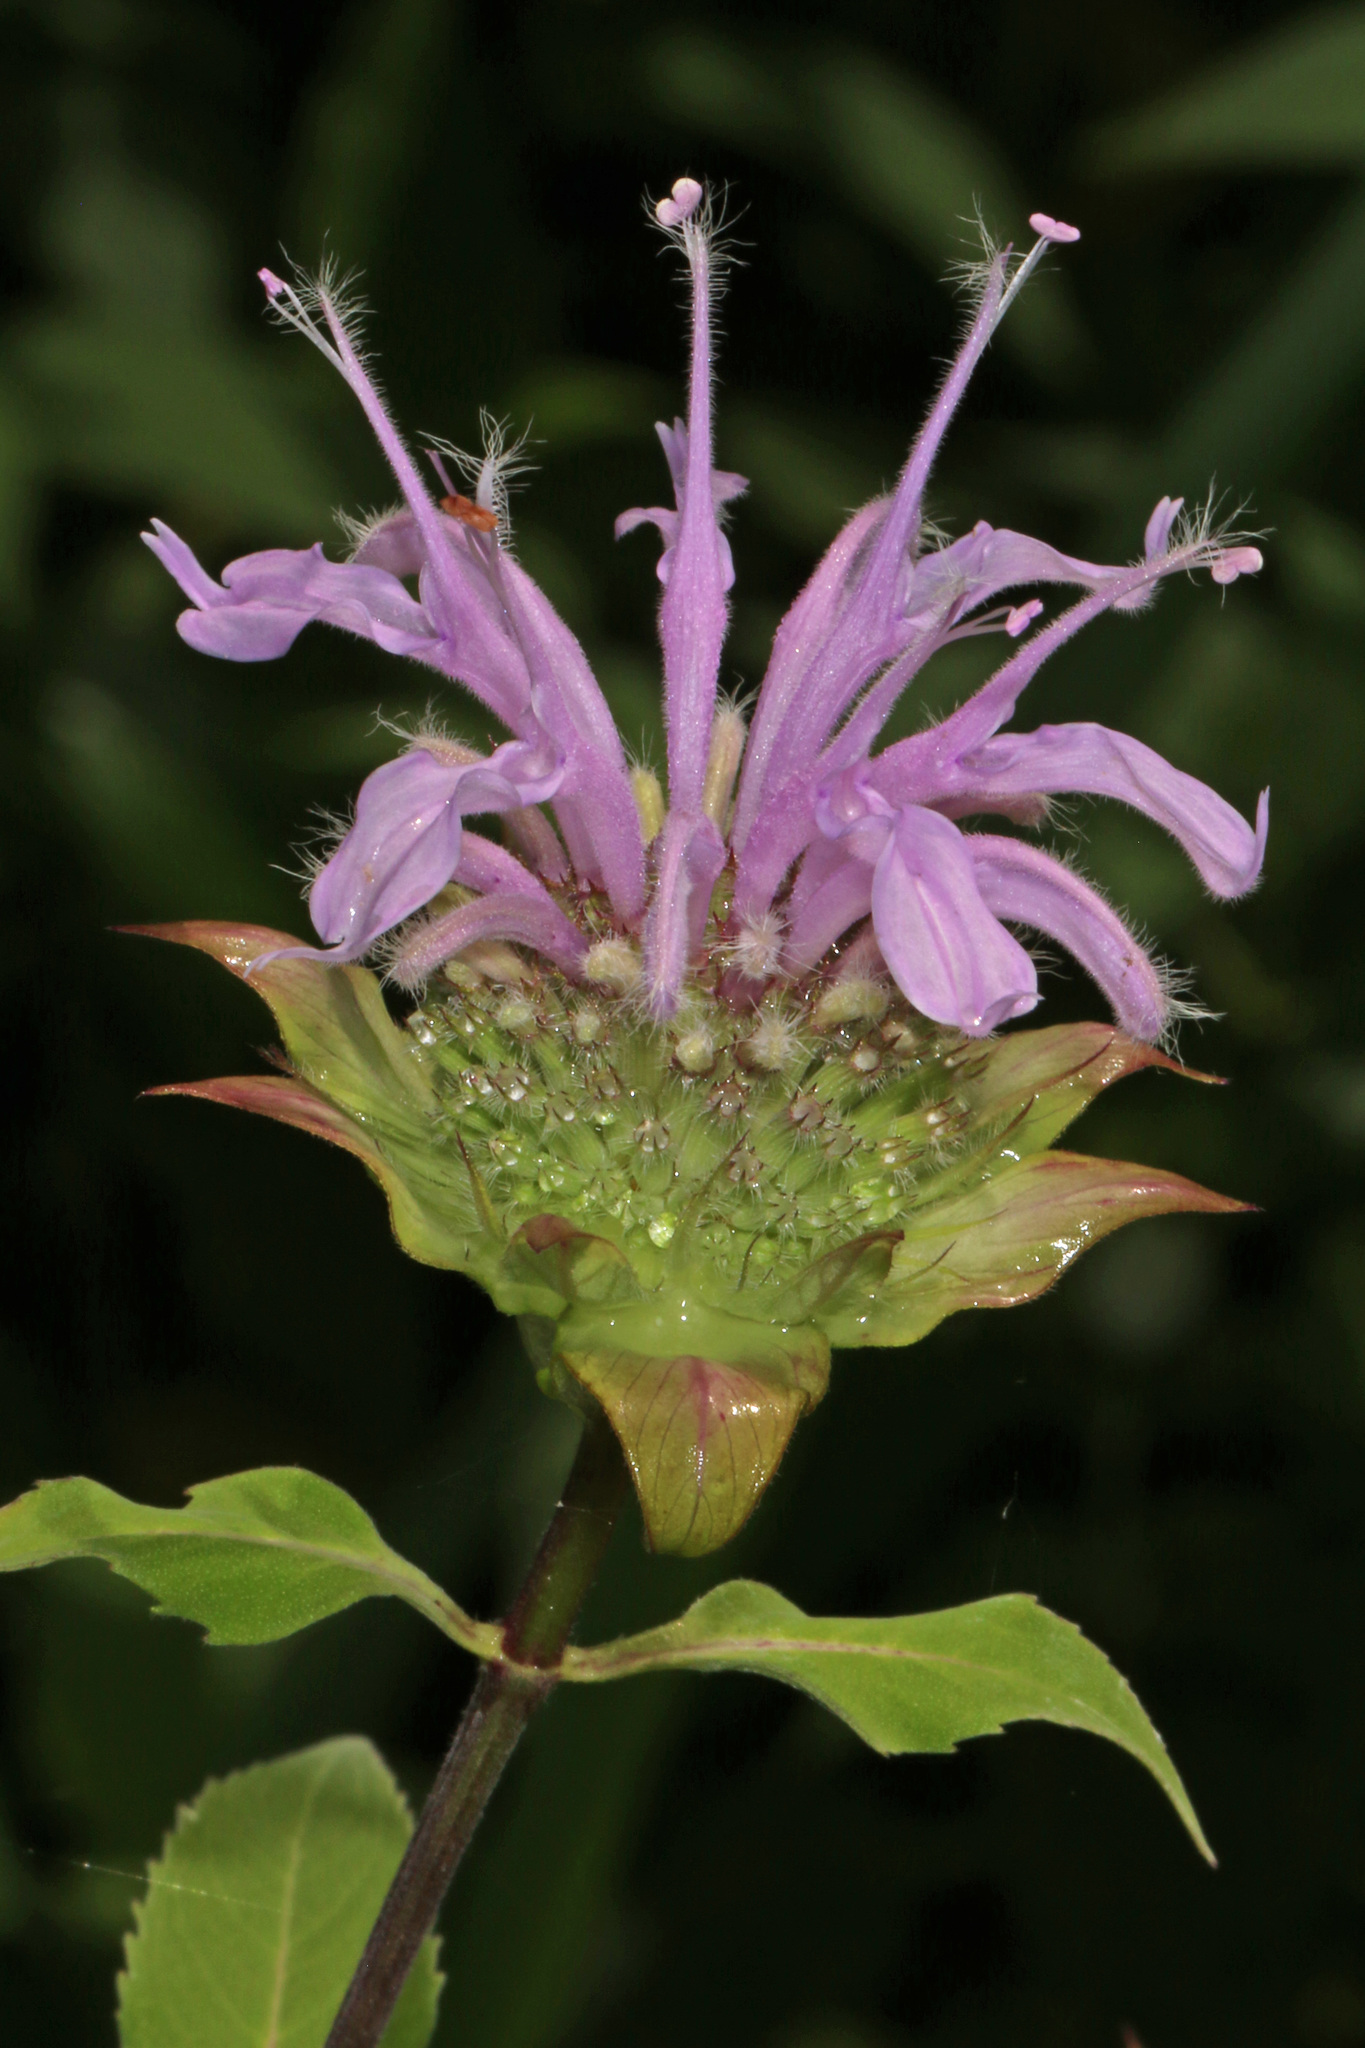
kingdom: Plantae
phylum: Tracheophyta
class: Magnoliopsida
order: Lamiales
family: Lamiaceae
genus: Monarda
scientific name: Monarda fistulosa
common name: Purple beebalm
